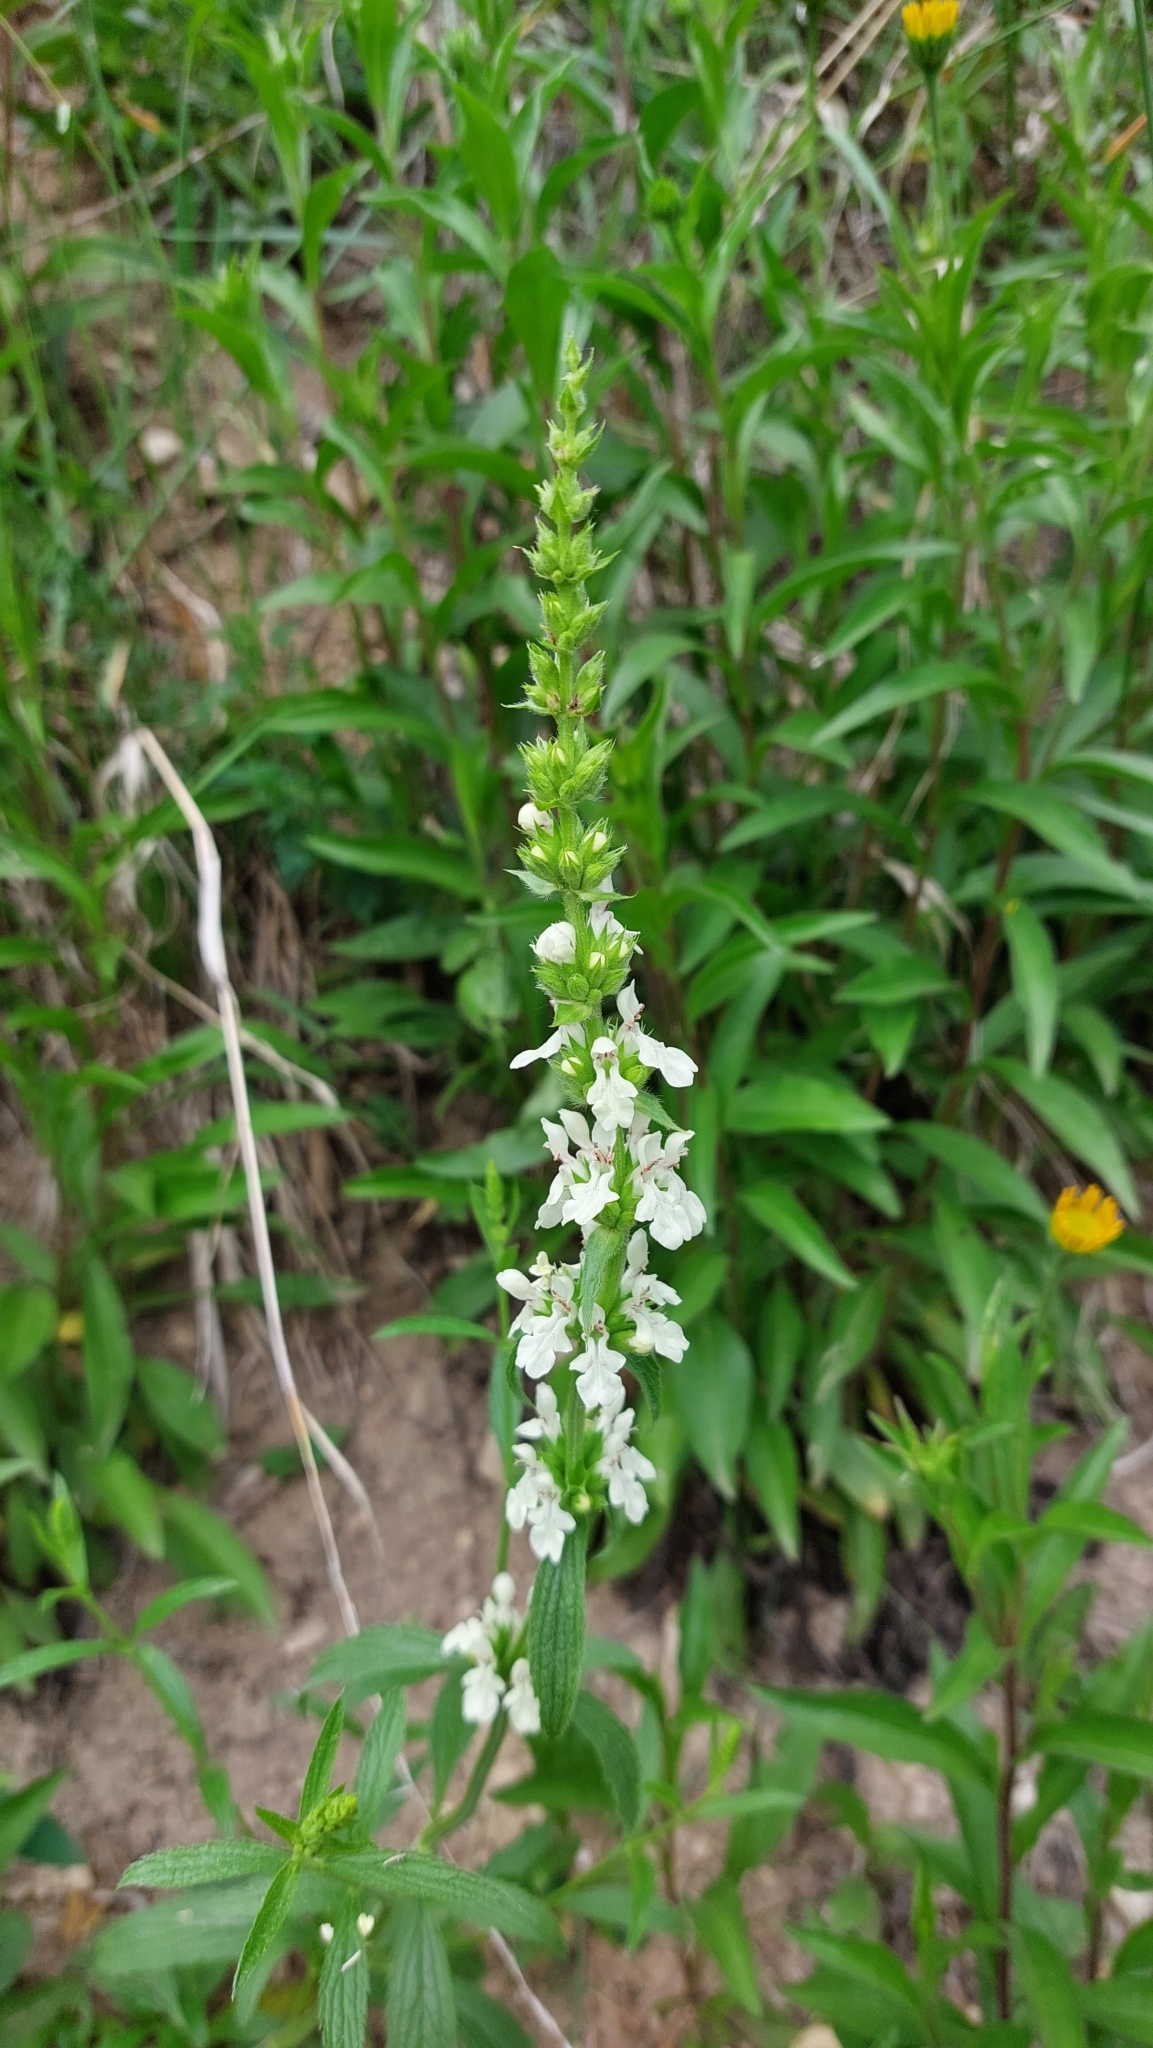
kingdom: Plantae
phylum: Tracheophyta
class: Magnoliopsida
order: Lamiales
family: Lamiaceae
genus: Stachys
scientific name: Stachys recta
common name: Perennial yellow-woundwort
